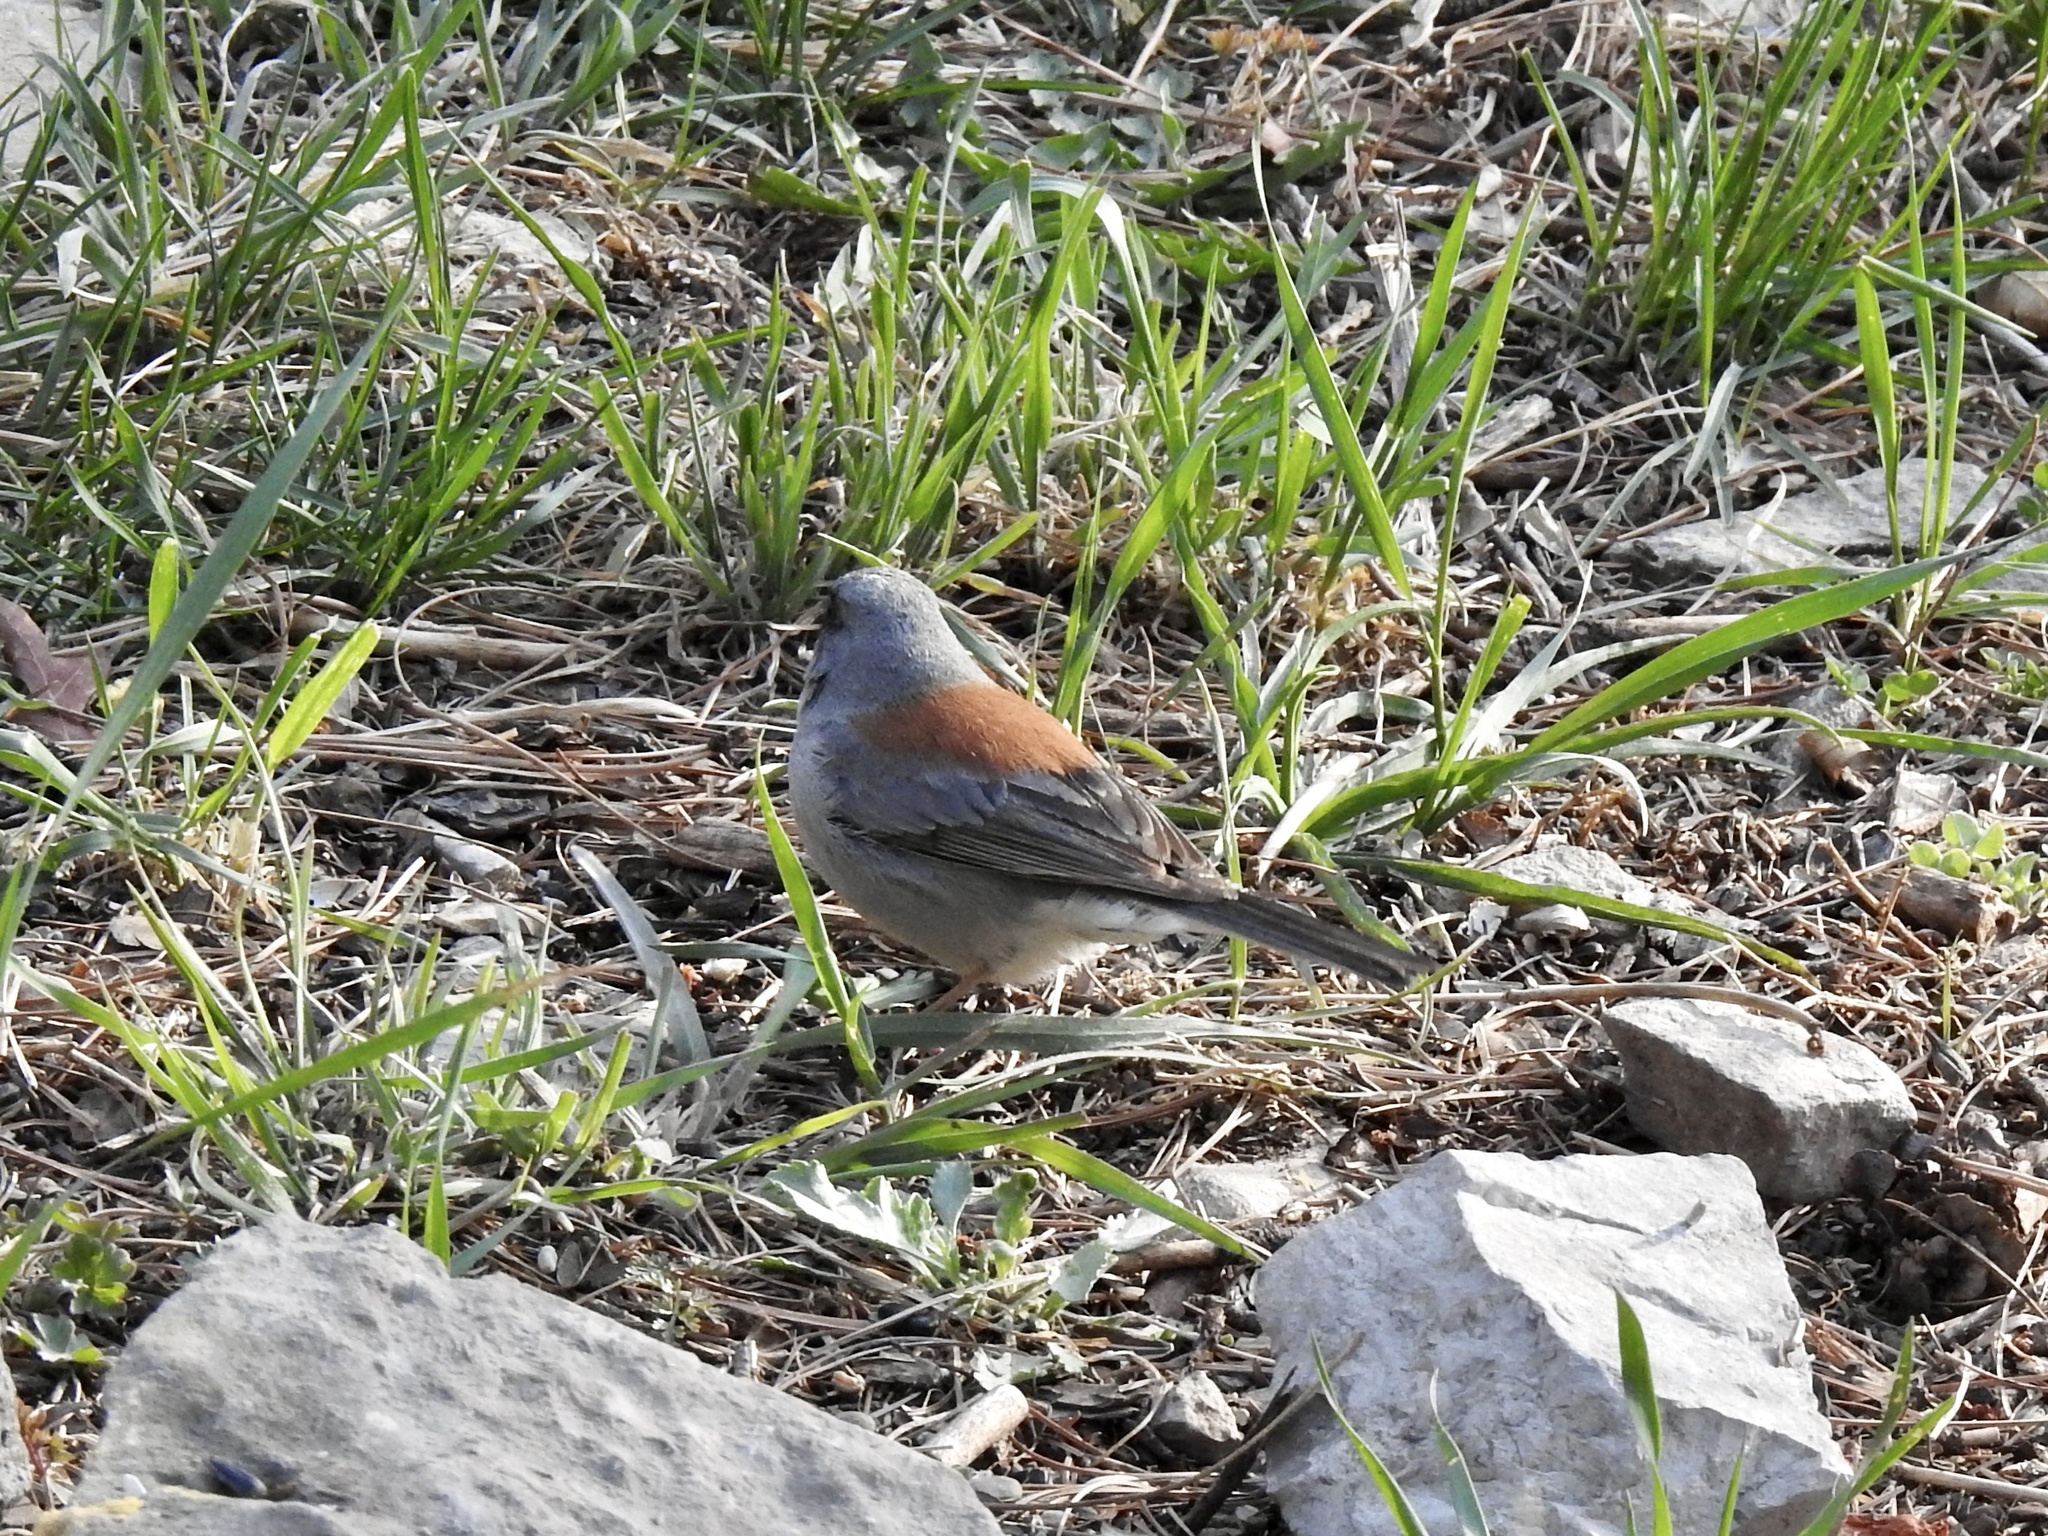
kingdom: Animalia
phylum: Chordata
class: Aves
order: Passeriformes
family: Passerellidae
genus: Junco
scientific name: Junco hyemalis
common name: Dark-eyed junco
